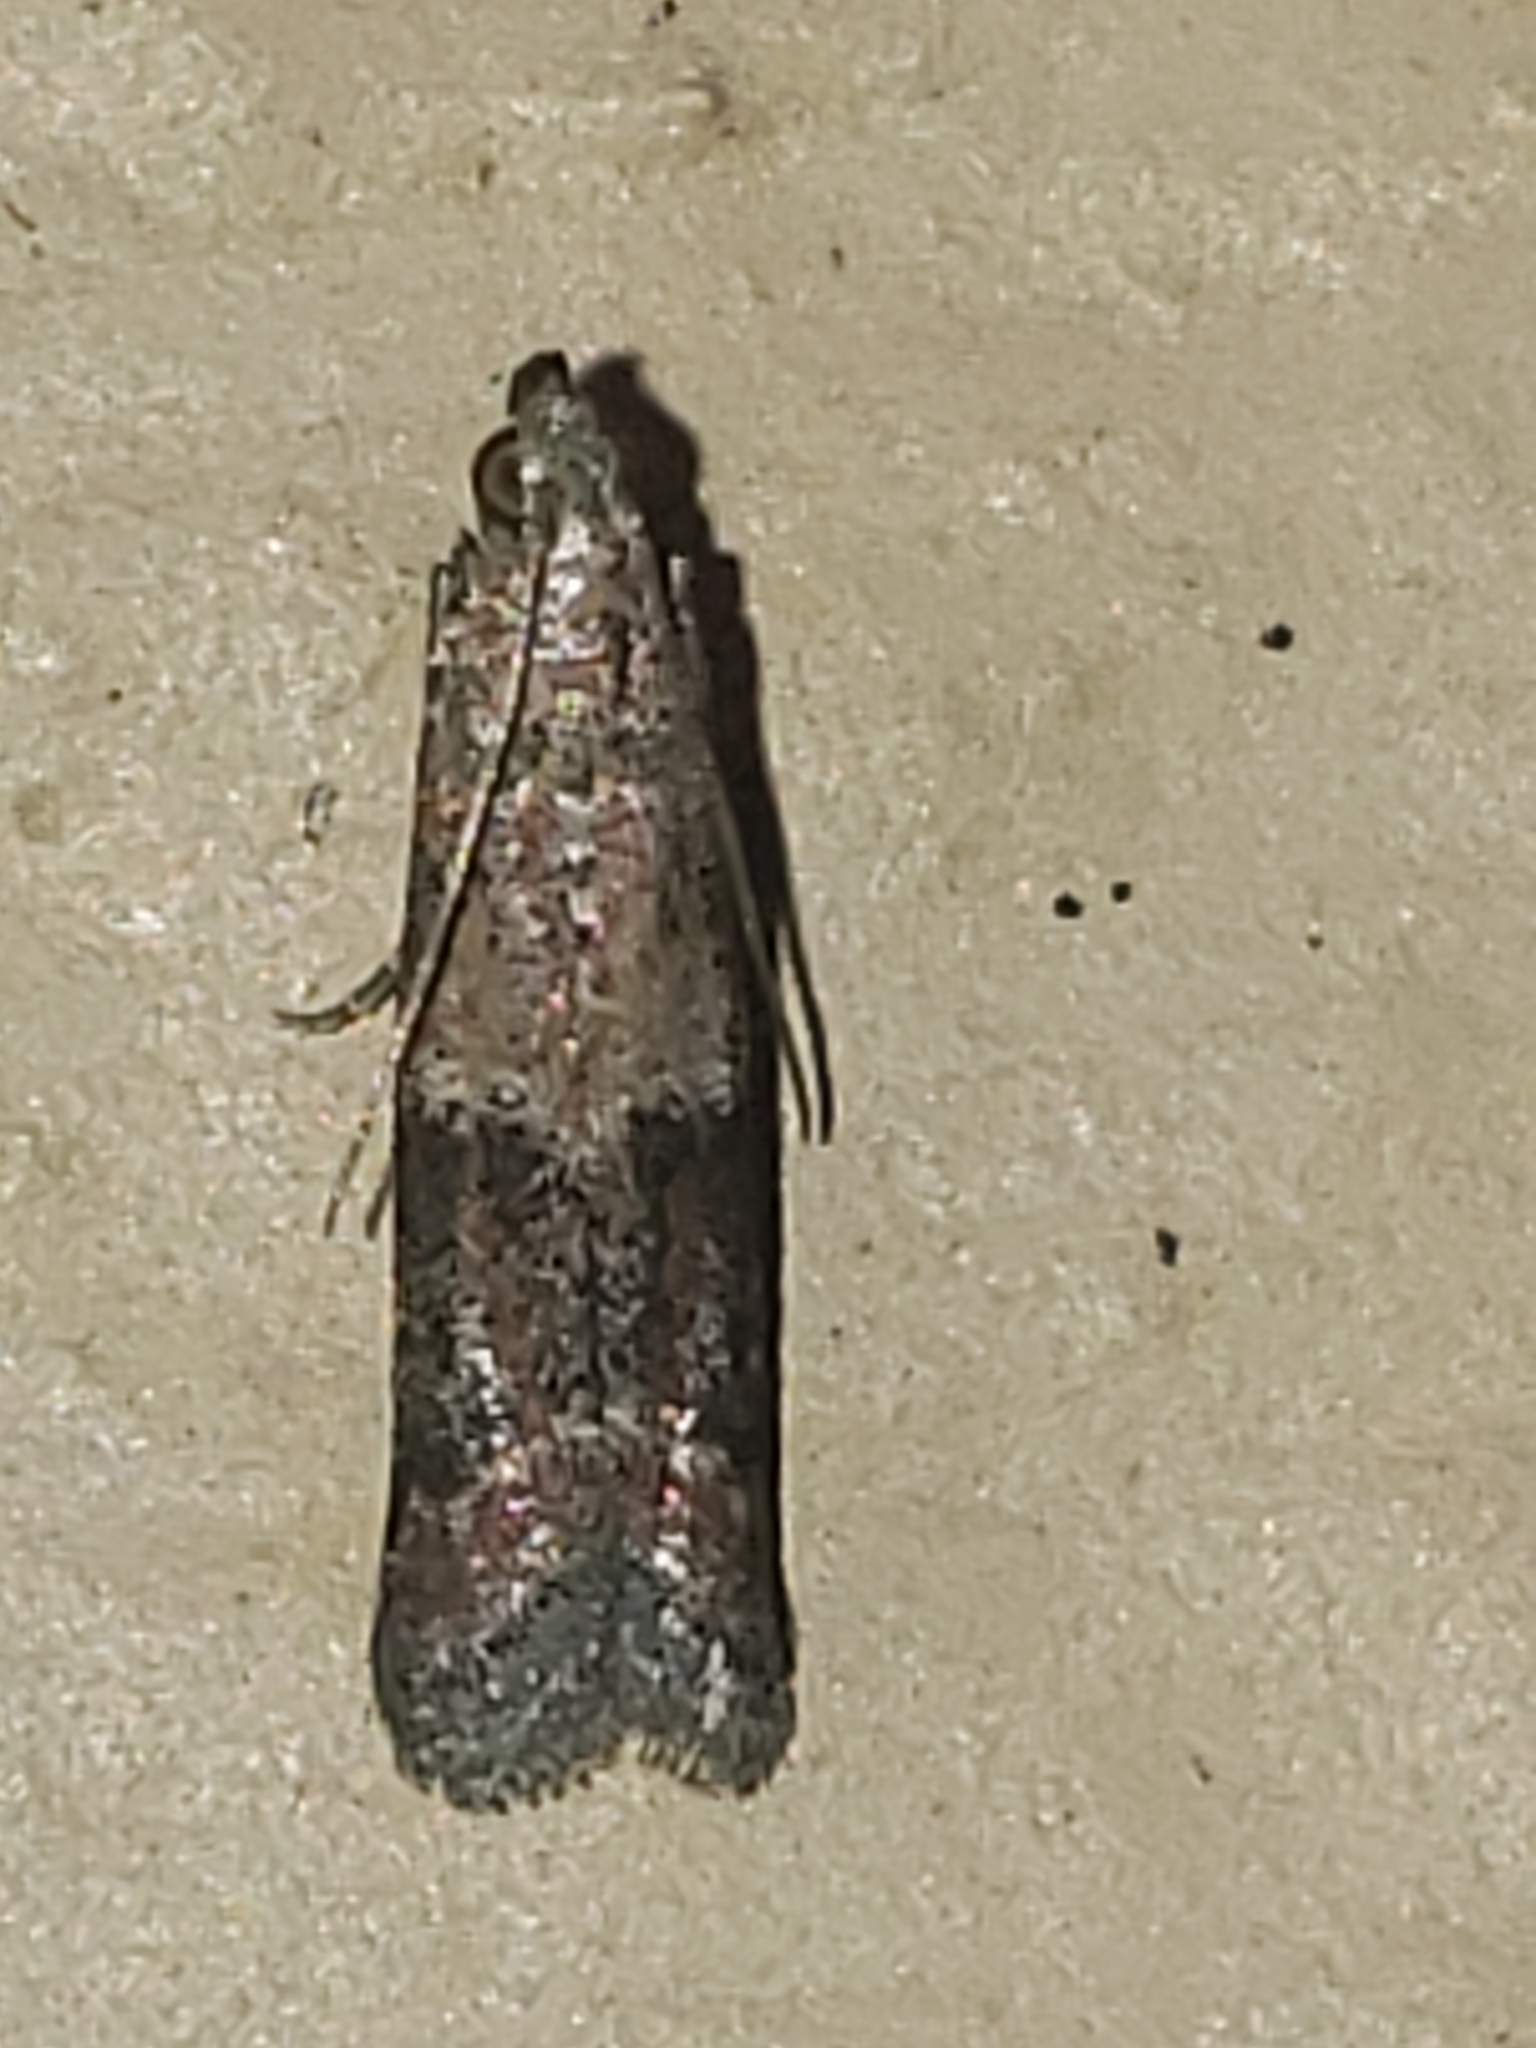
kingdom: Animalia
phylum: Arthropoda
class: Insecta
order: Lepidoptera
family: Pyralidae
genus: Ephestiodes
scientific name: Ephestiodes infimella
